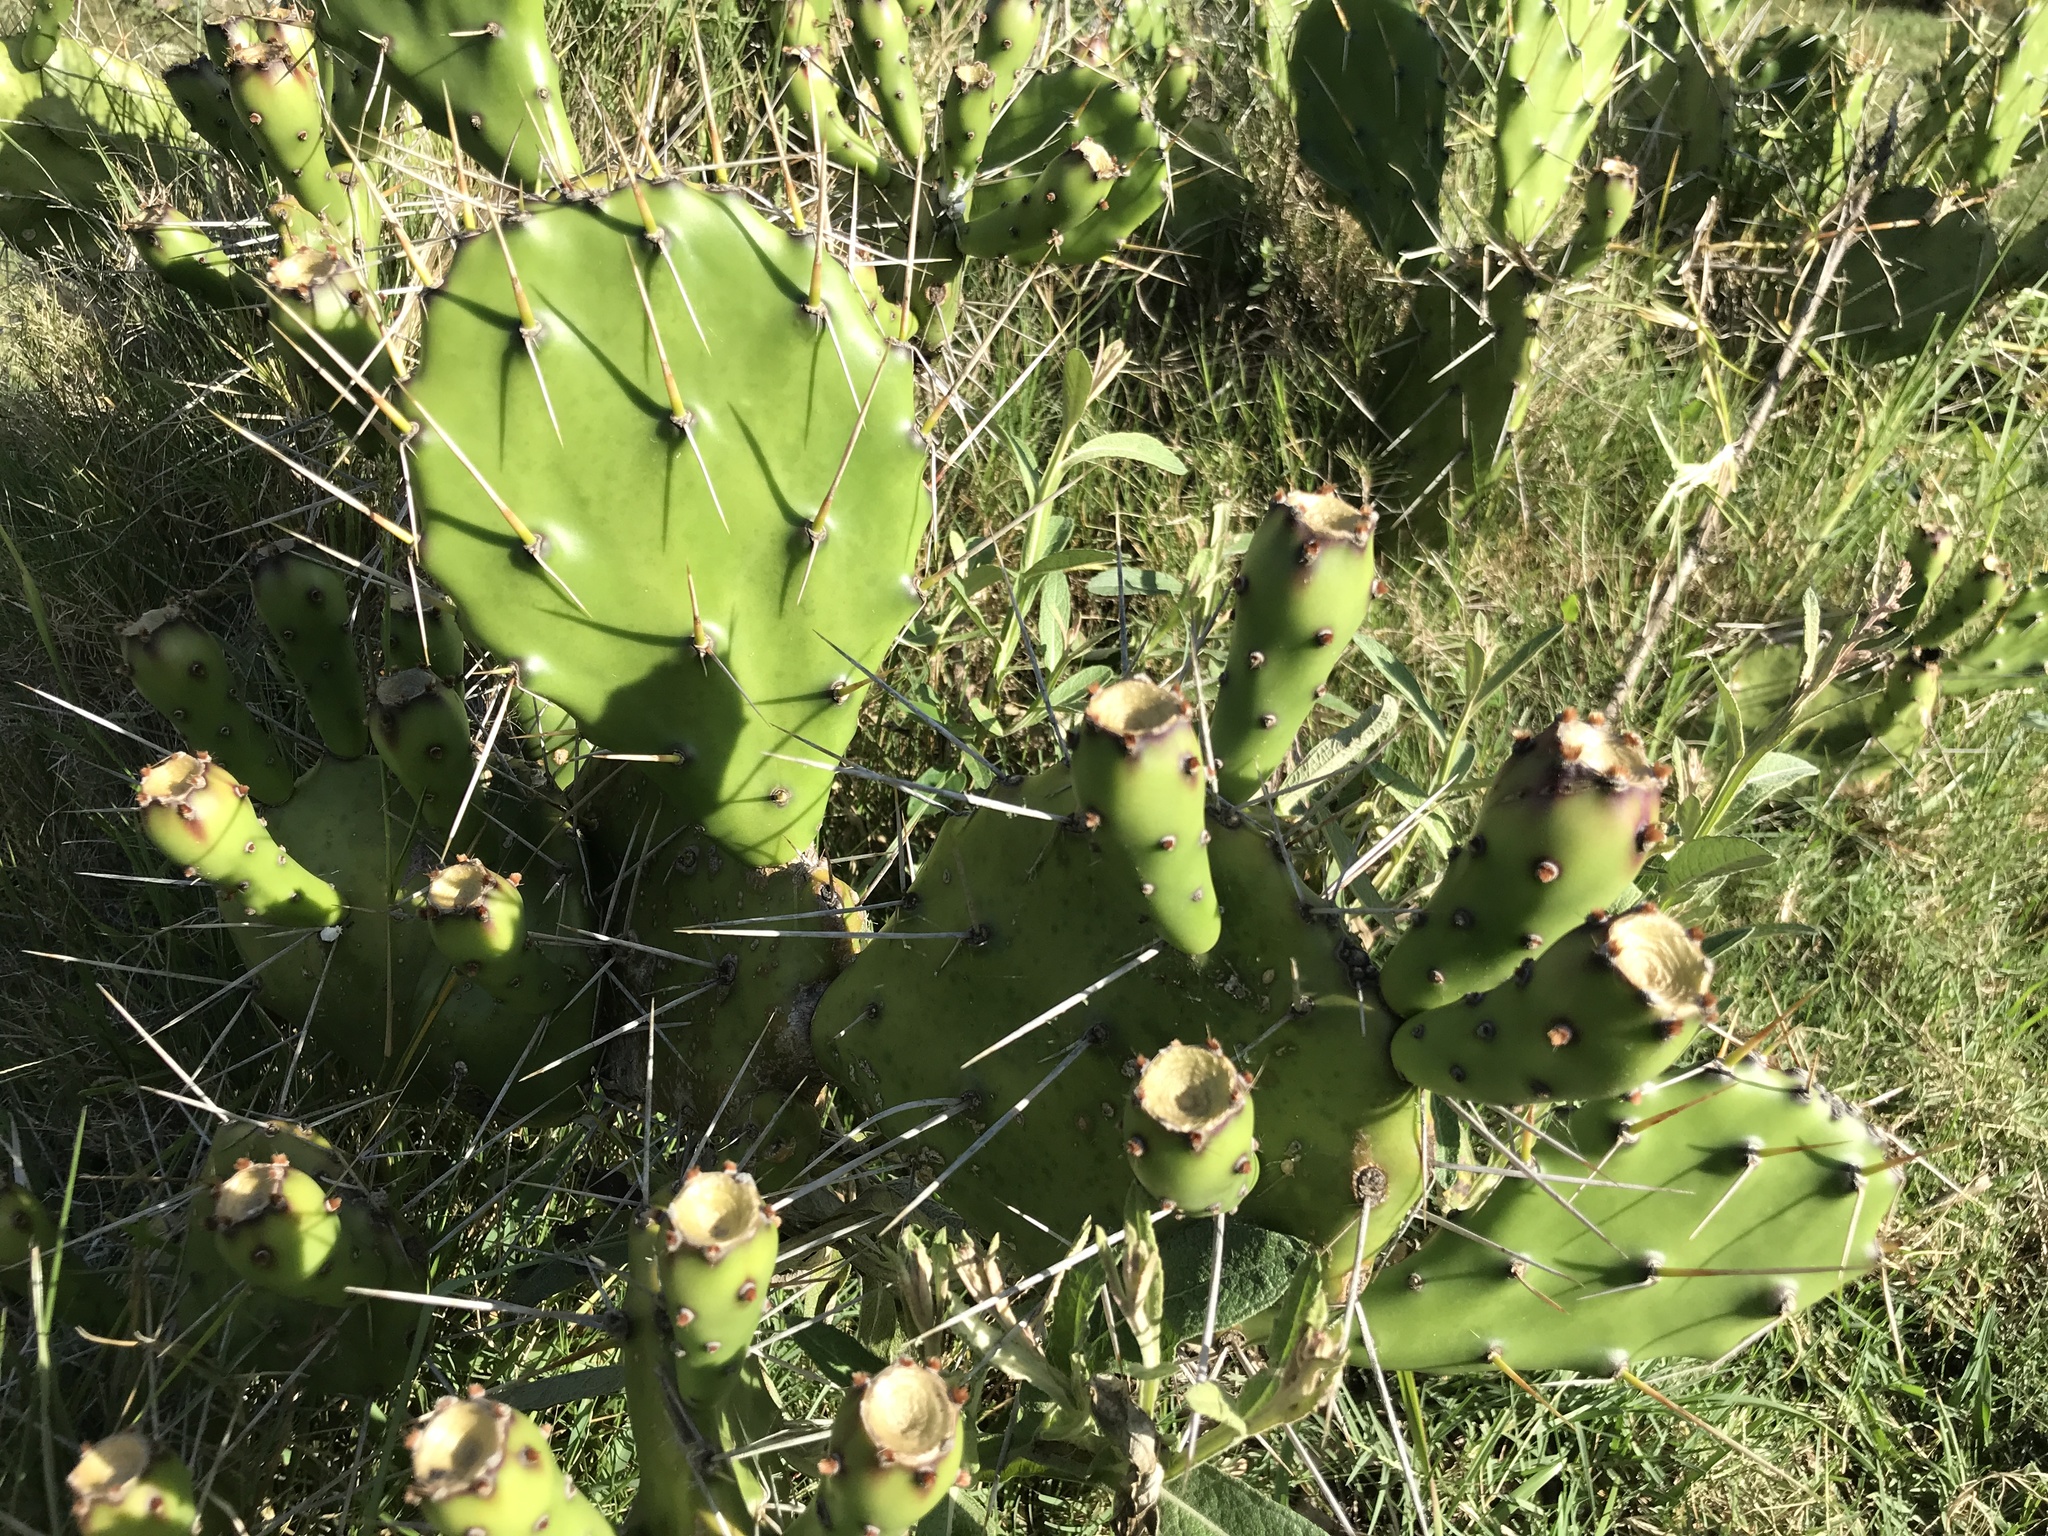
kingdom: Plantae
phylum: Tracheophyta
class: Magnoliopsida
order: Caryophyllales
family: Cactaceae
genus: Opuntia
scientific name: Opuntia arechavaletae
